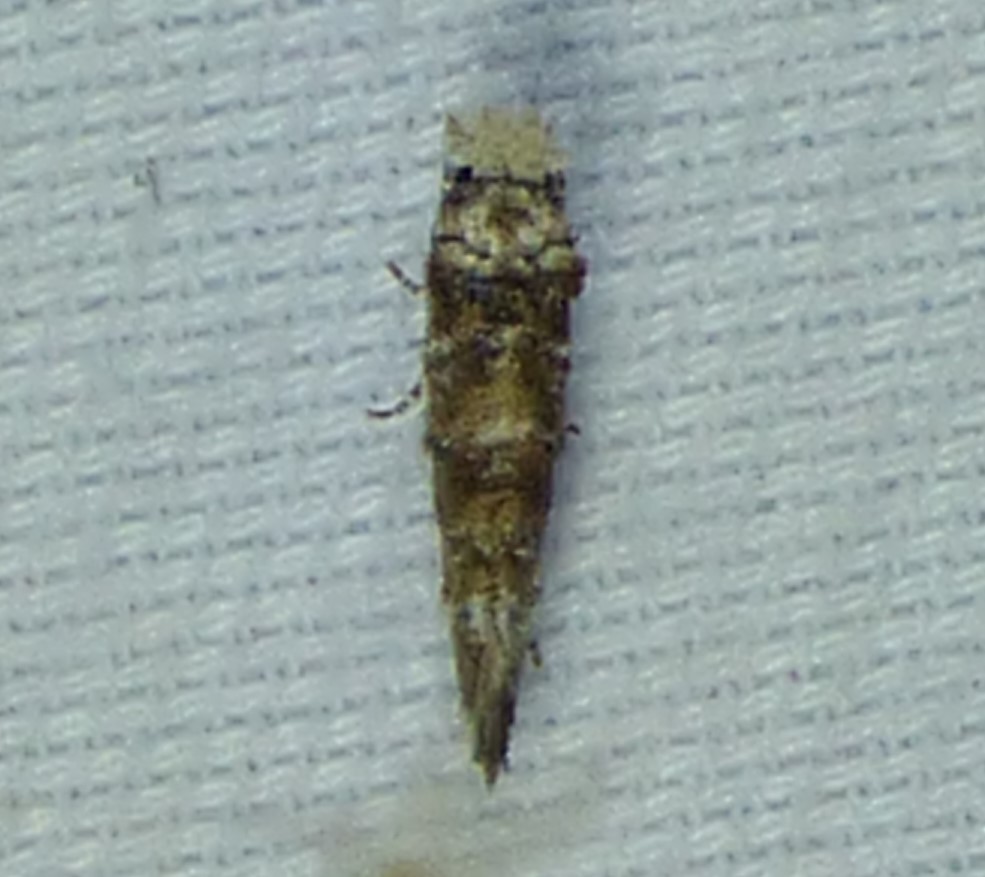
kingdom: Animalia
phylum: Arthropoda
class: Insecta
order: Lepidoptera
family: Tineidae
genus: Xylesthia
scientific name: Xylesthia pruniramiella
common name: Clemens' bark moth
